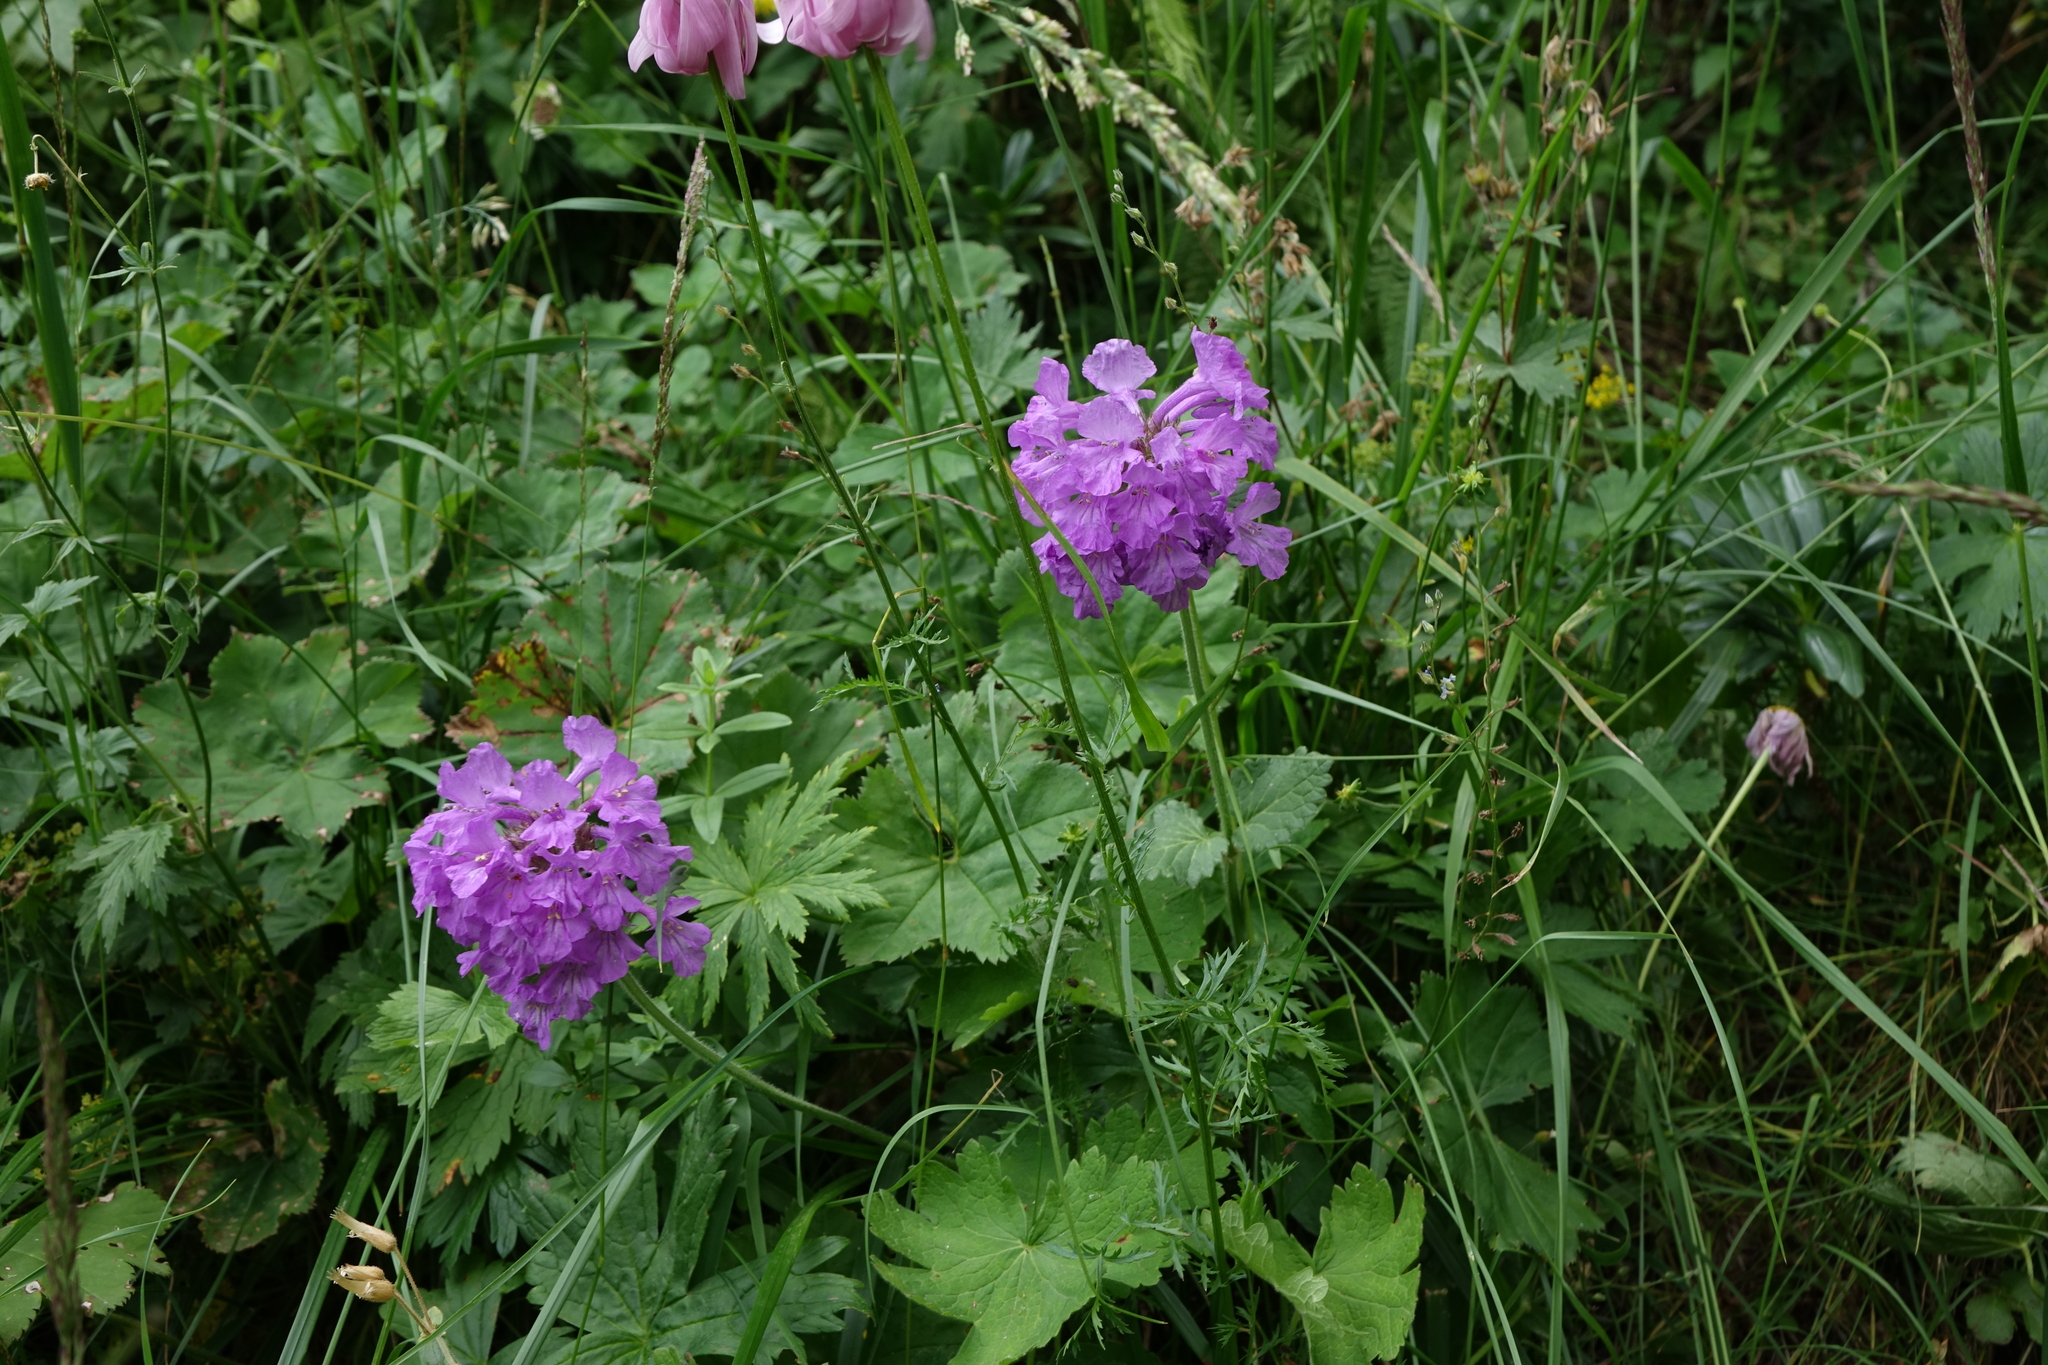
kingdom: Plantae
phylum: Tracheophyta
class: Magnoliopsida
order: Lamiales
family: Lamiaceae
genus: Betonica
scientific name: Betonica macrantha
